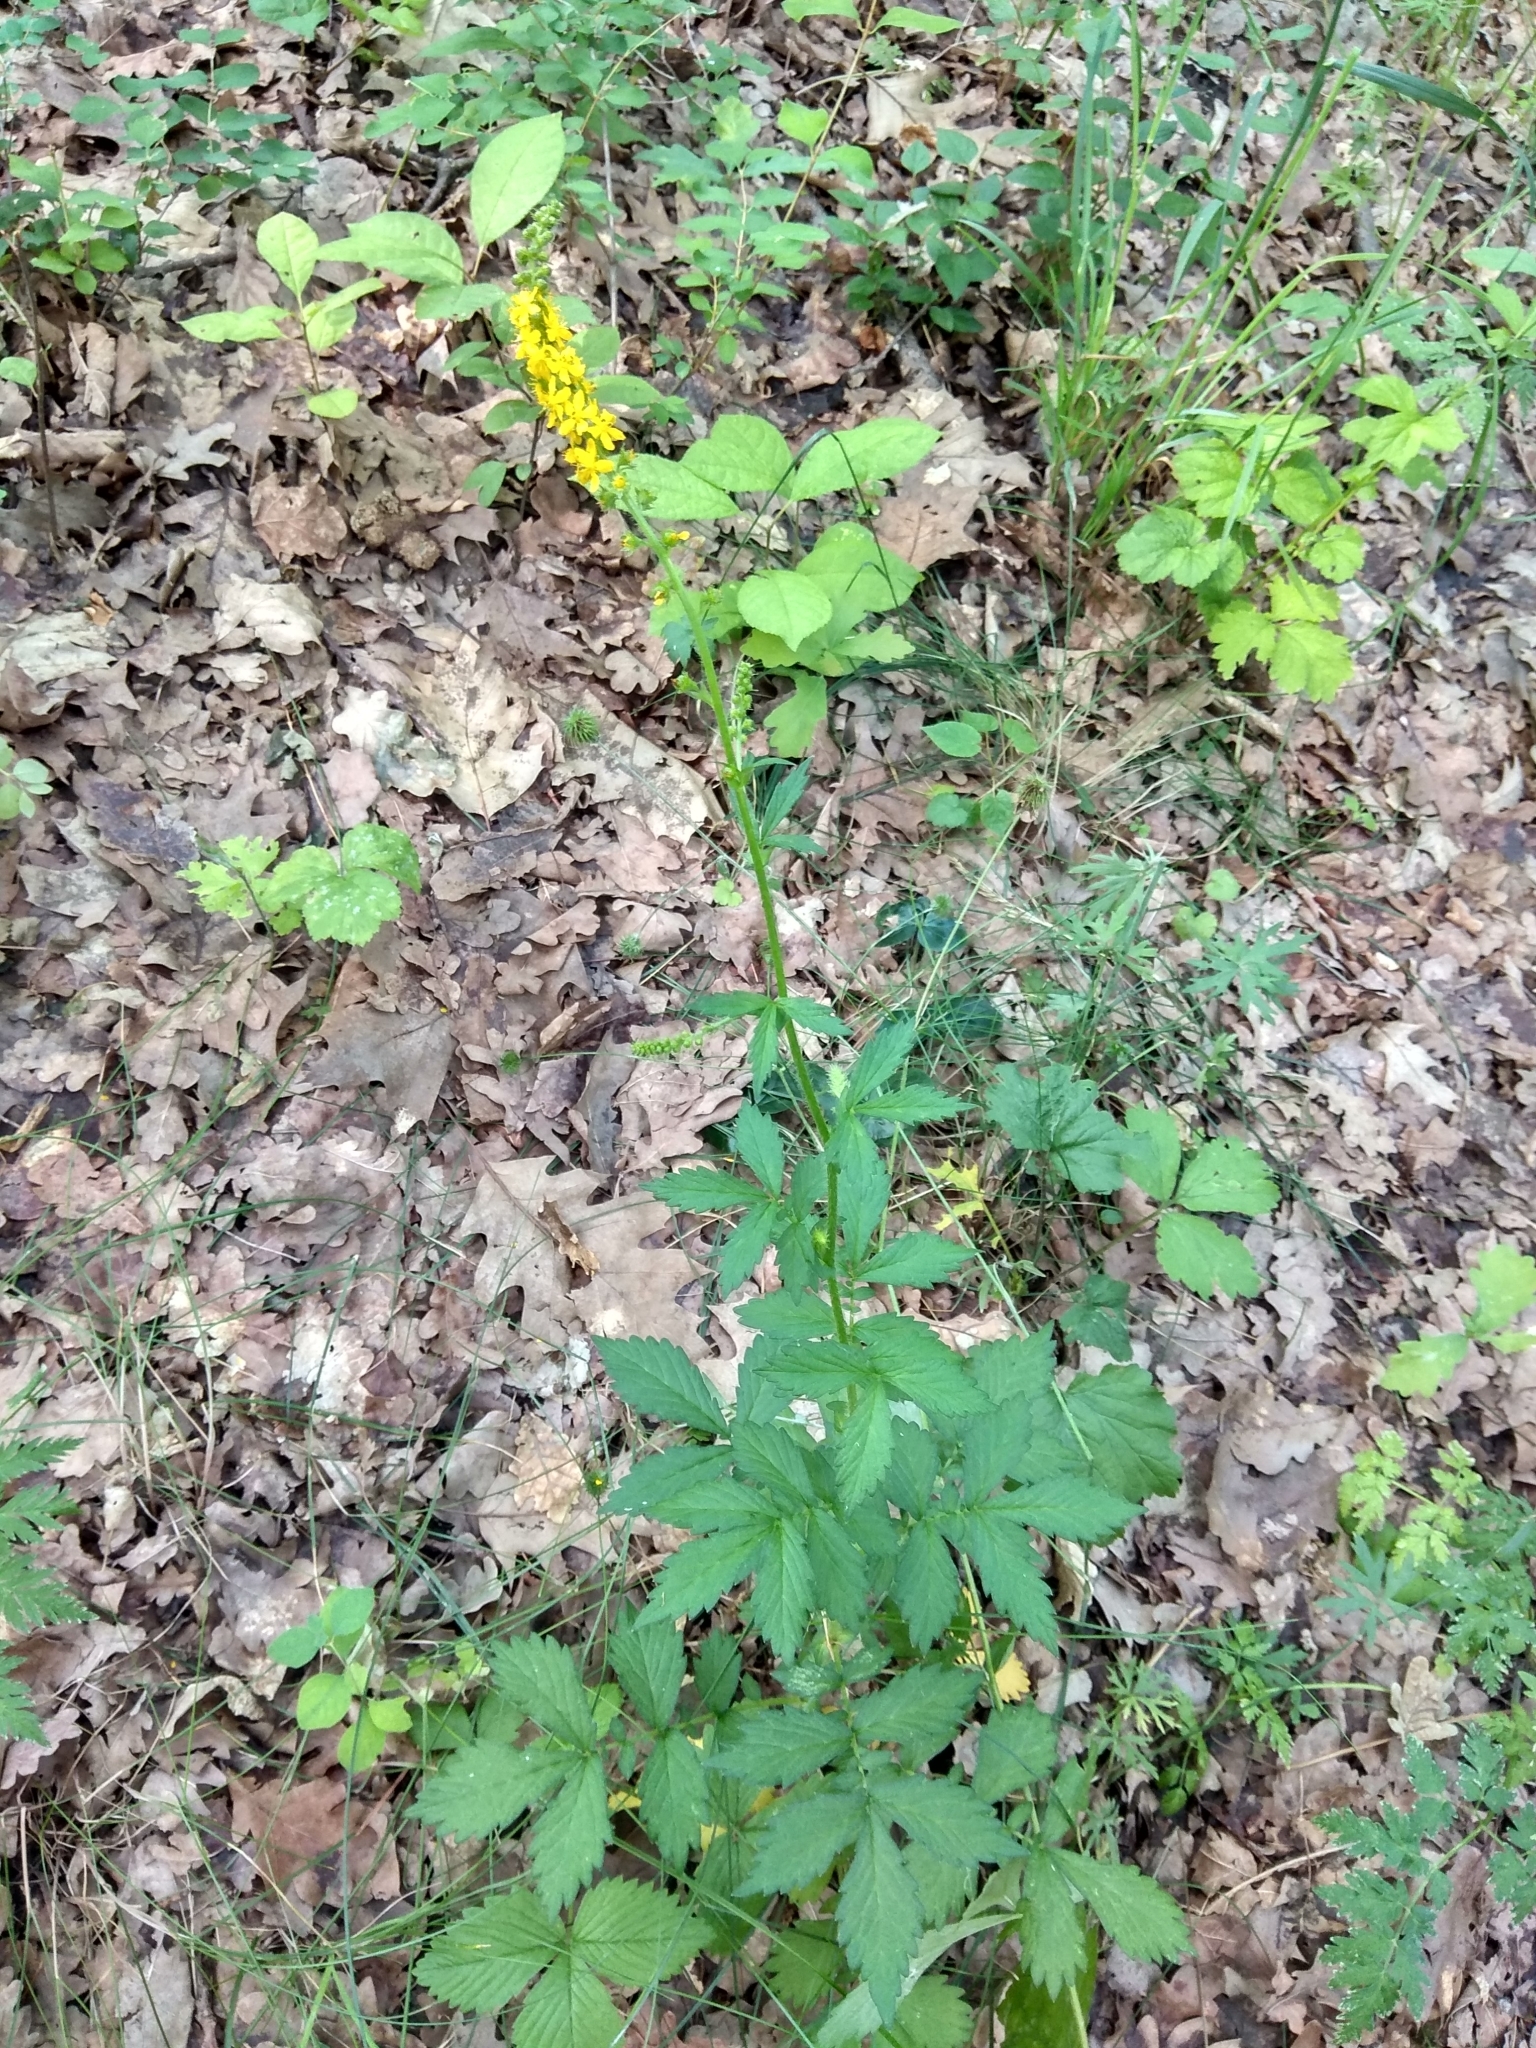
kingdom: Plantae
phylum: Tracheophyta
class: Magnoliopsida
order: Rosales
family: Rosaceae
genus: Agrimonia
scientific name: Agrimonia pilosa
